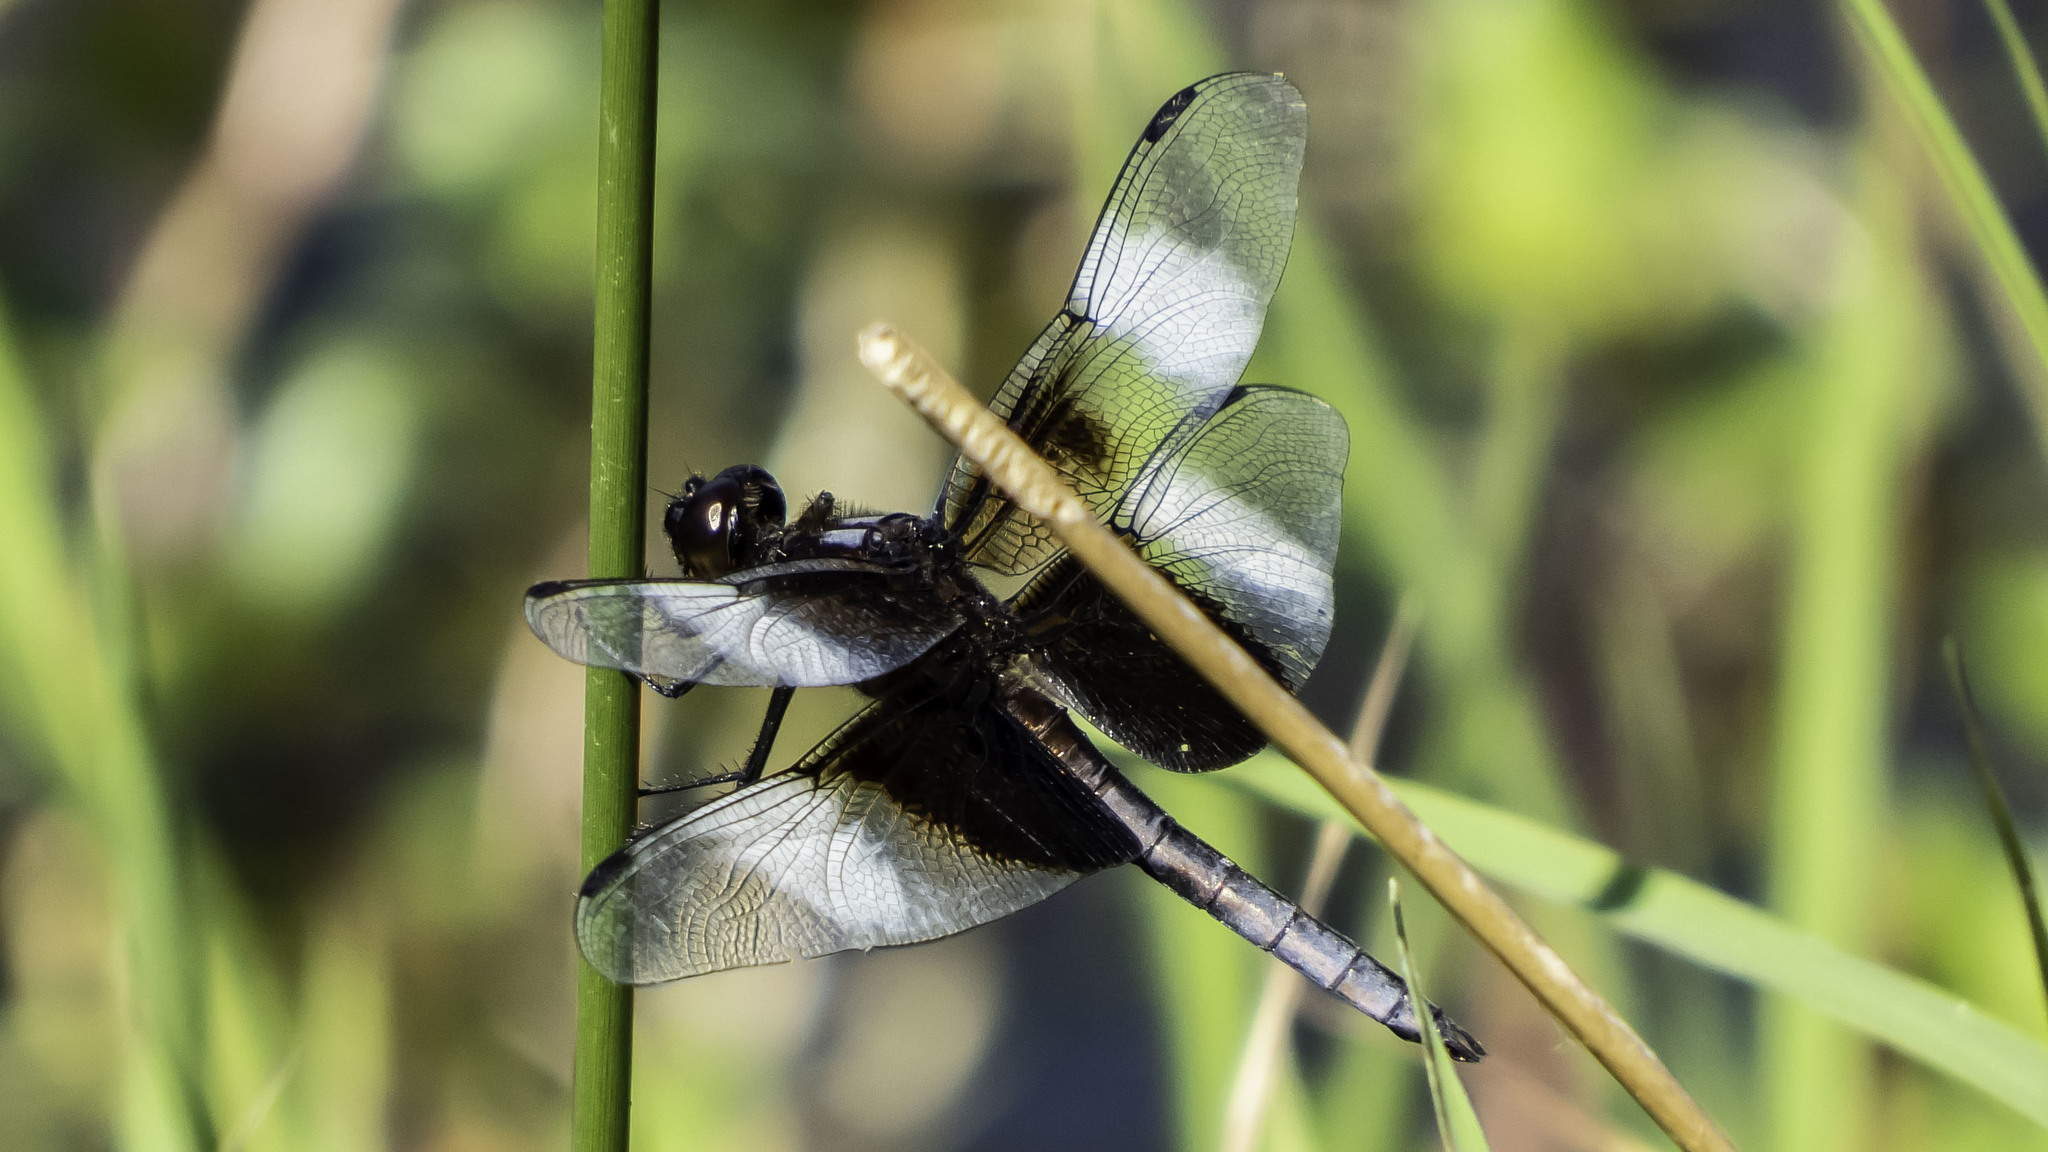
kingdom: Animalia
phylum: Arthropoda
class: Insecta
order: Odonata
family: Libellulidae
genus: Libellula
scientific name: Libellula luctuosa
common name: Widow skimmer
